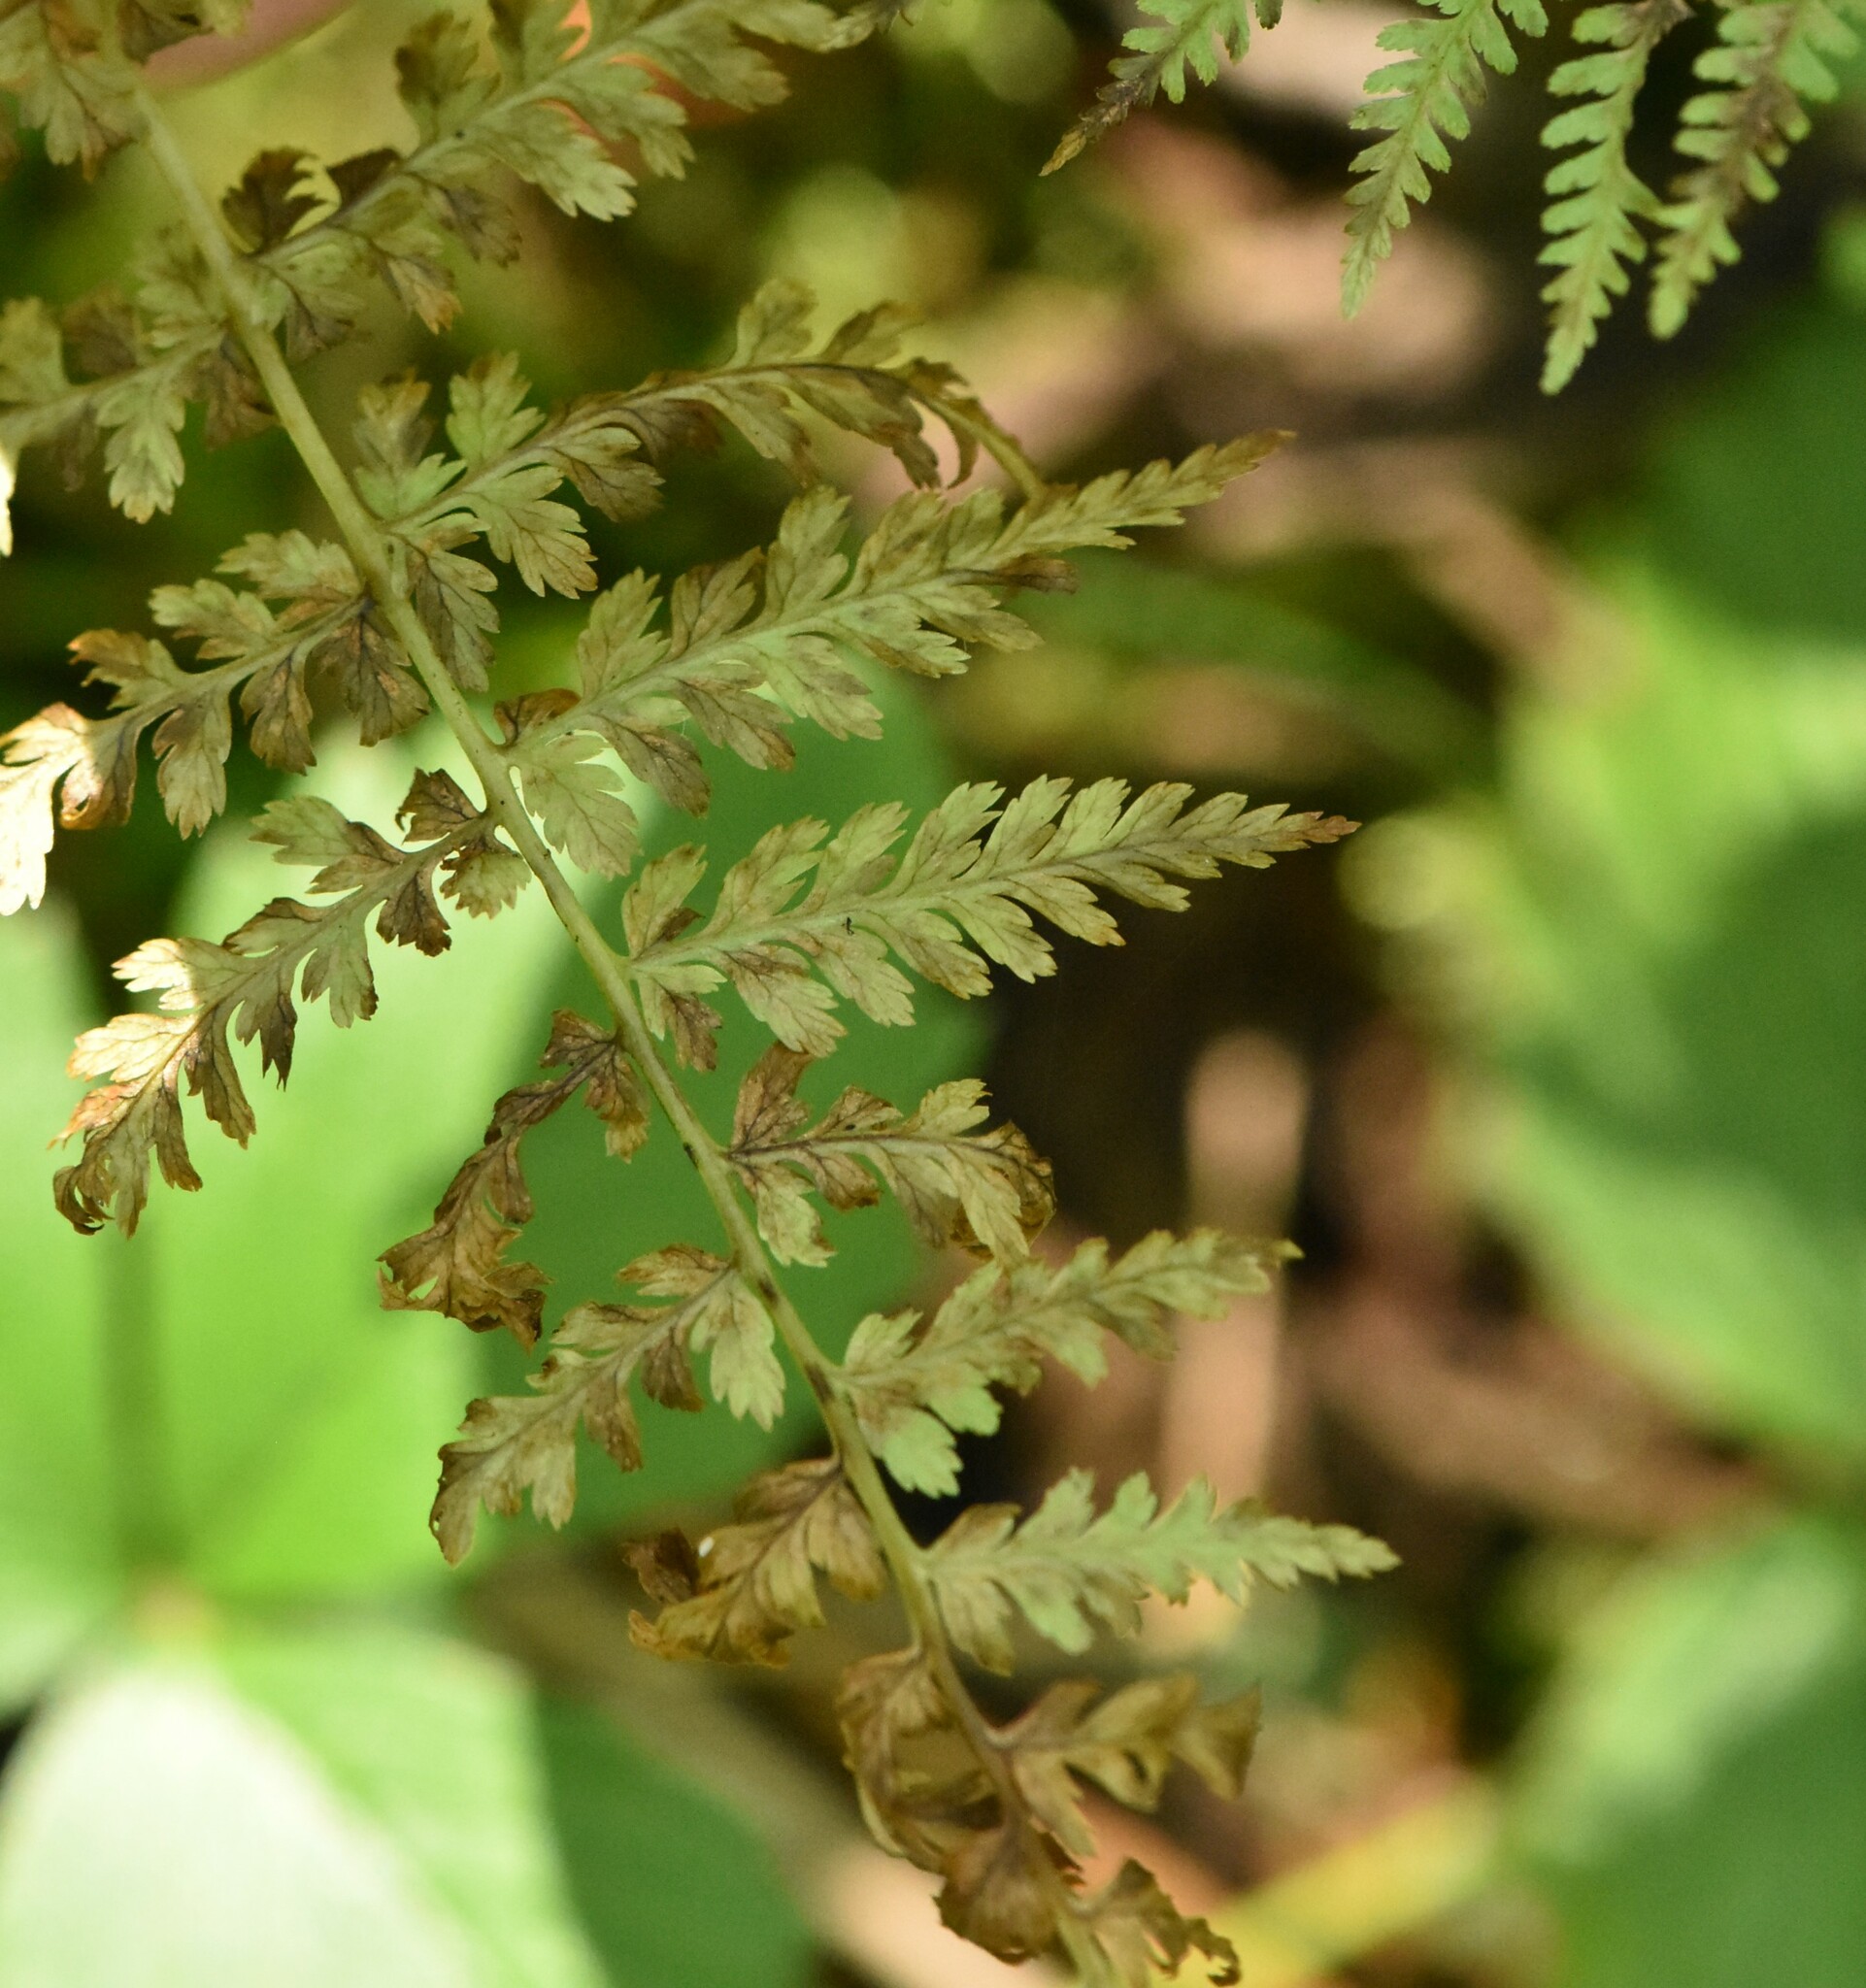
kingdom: Plantae
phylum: Tracheophyta
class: Polypodiopsida
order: Polypodiales
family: Athyriaceae
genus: Athyrium
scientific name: Athyrium filix-femina
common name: Lady fern
